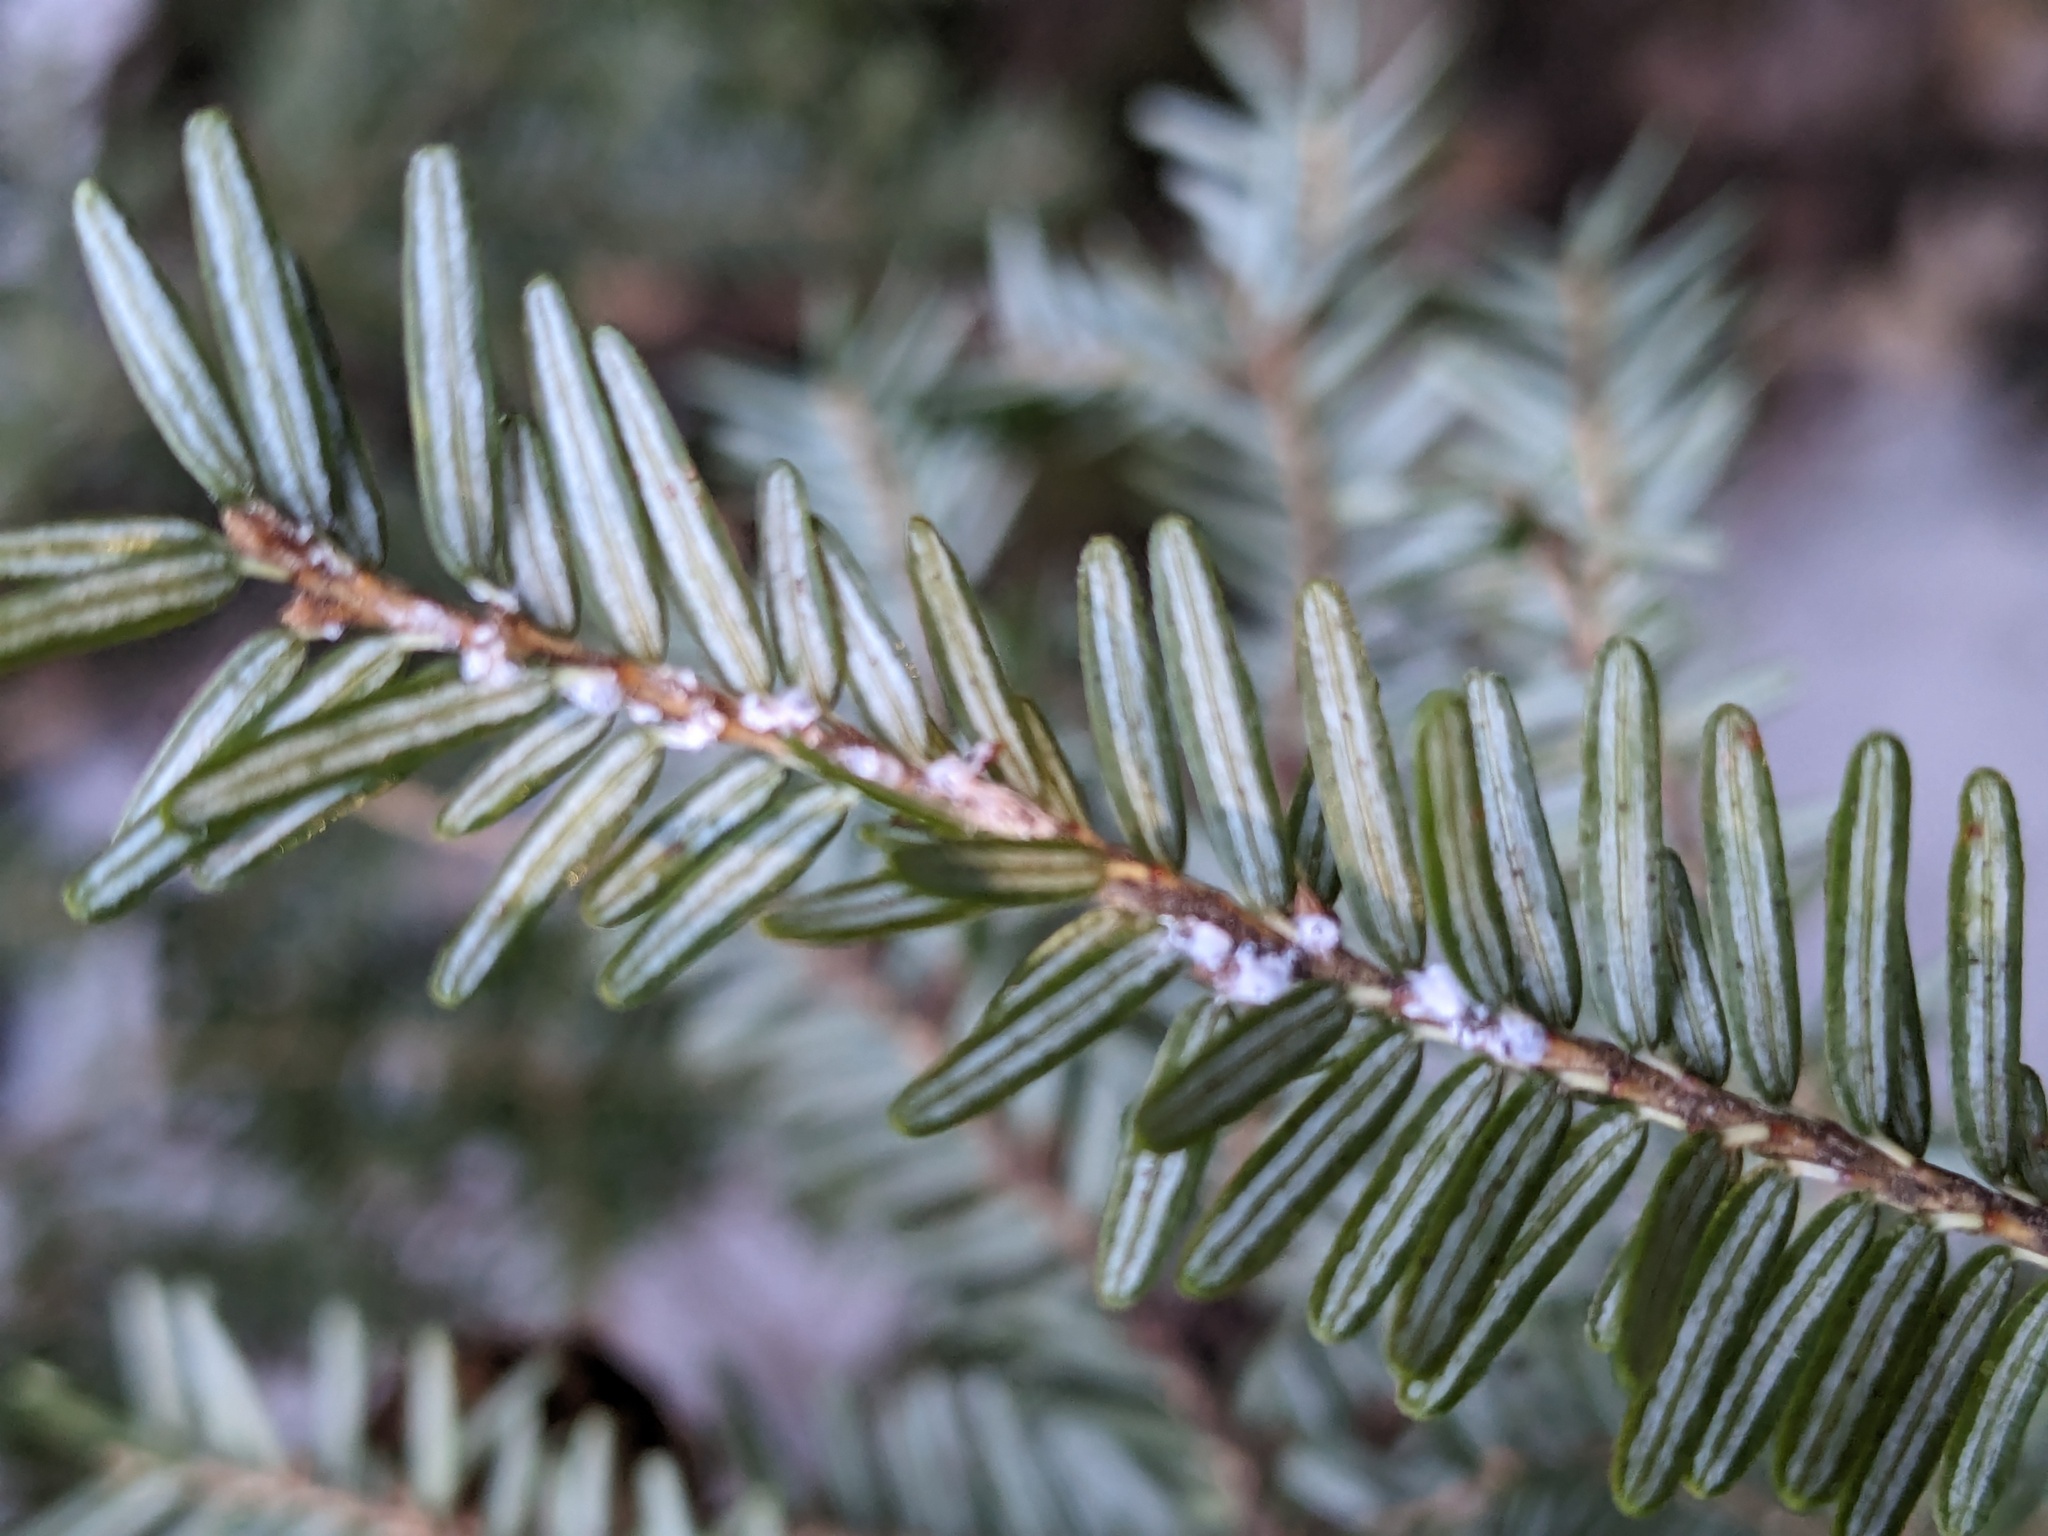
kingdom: Animalia
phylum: Arthropoda
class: Insecta
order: Hemiptera
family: Adelgidae
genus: Adelges
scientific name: Adelges tsugae
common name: Hemlock woolly adelgid
